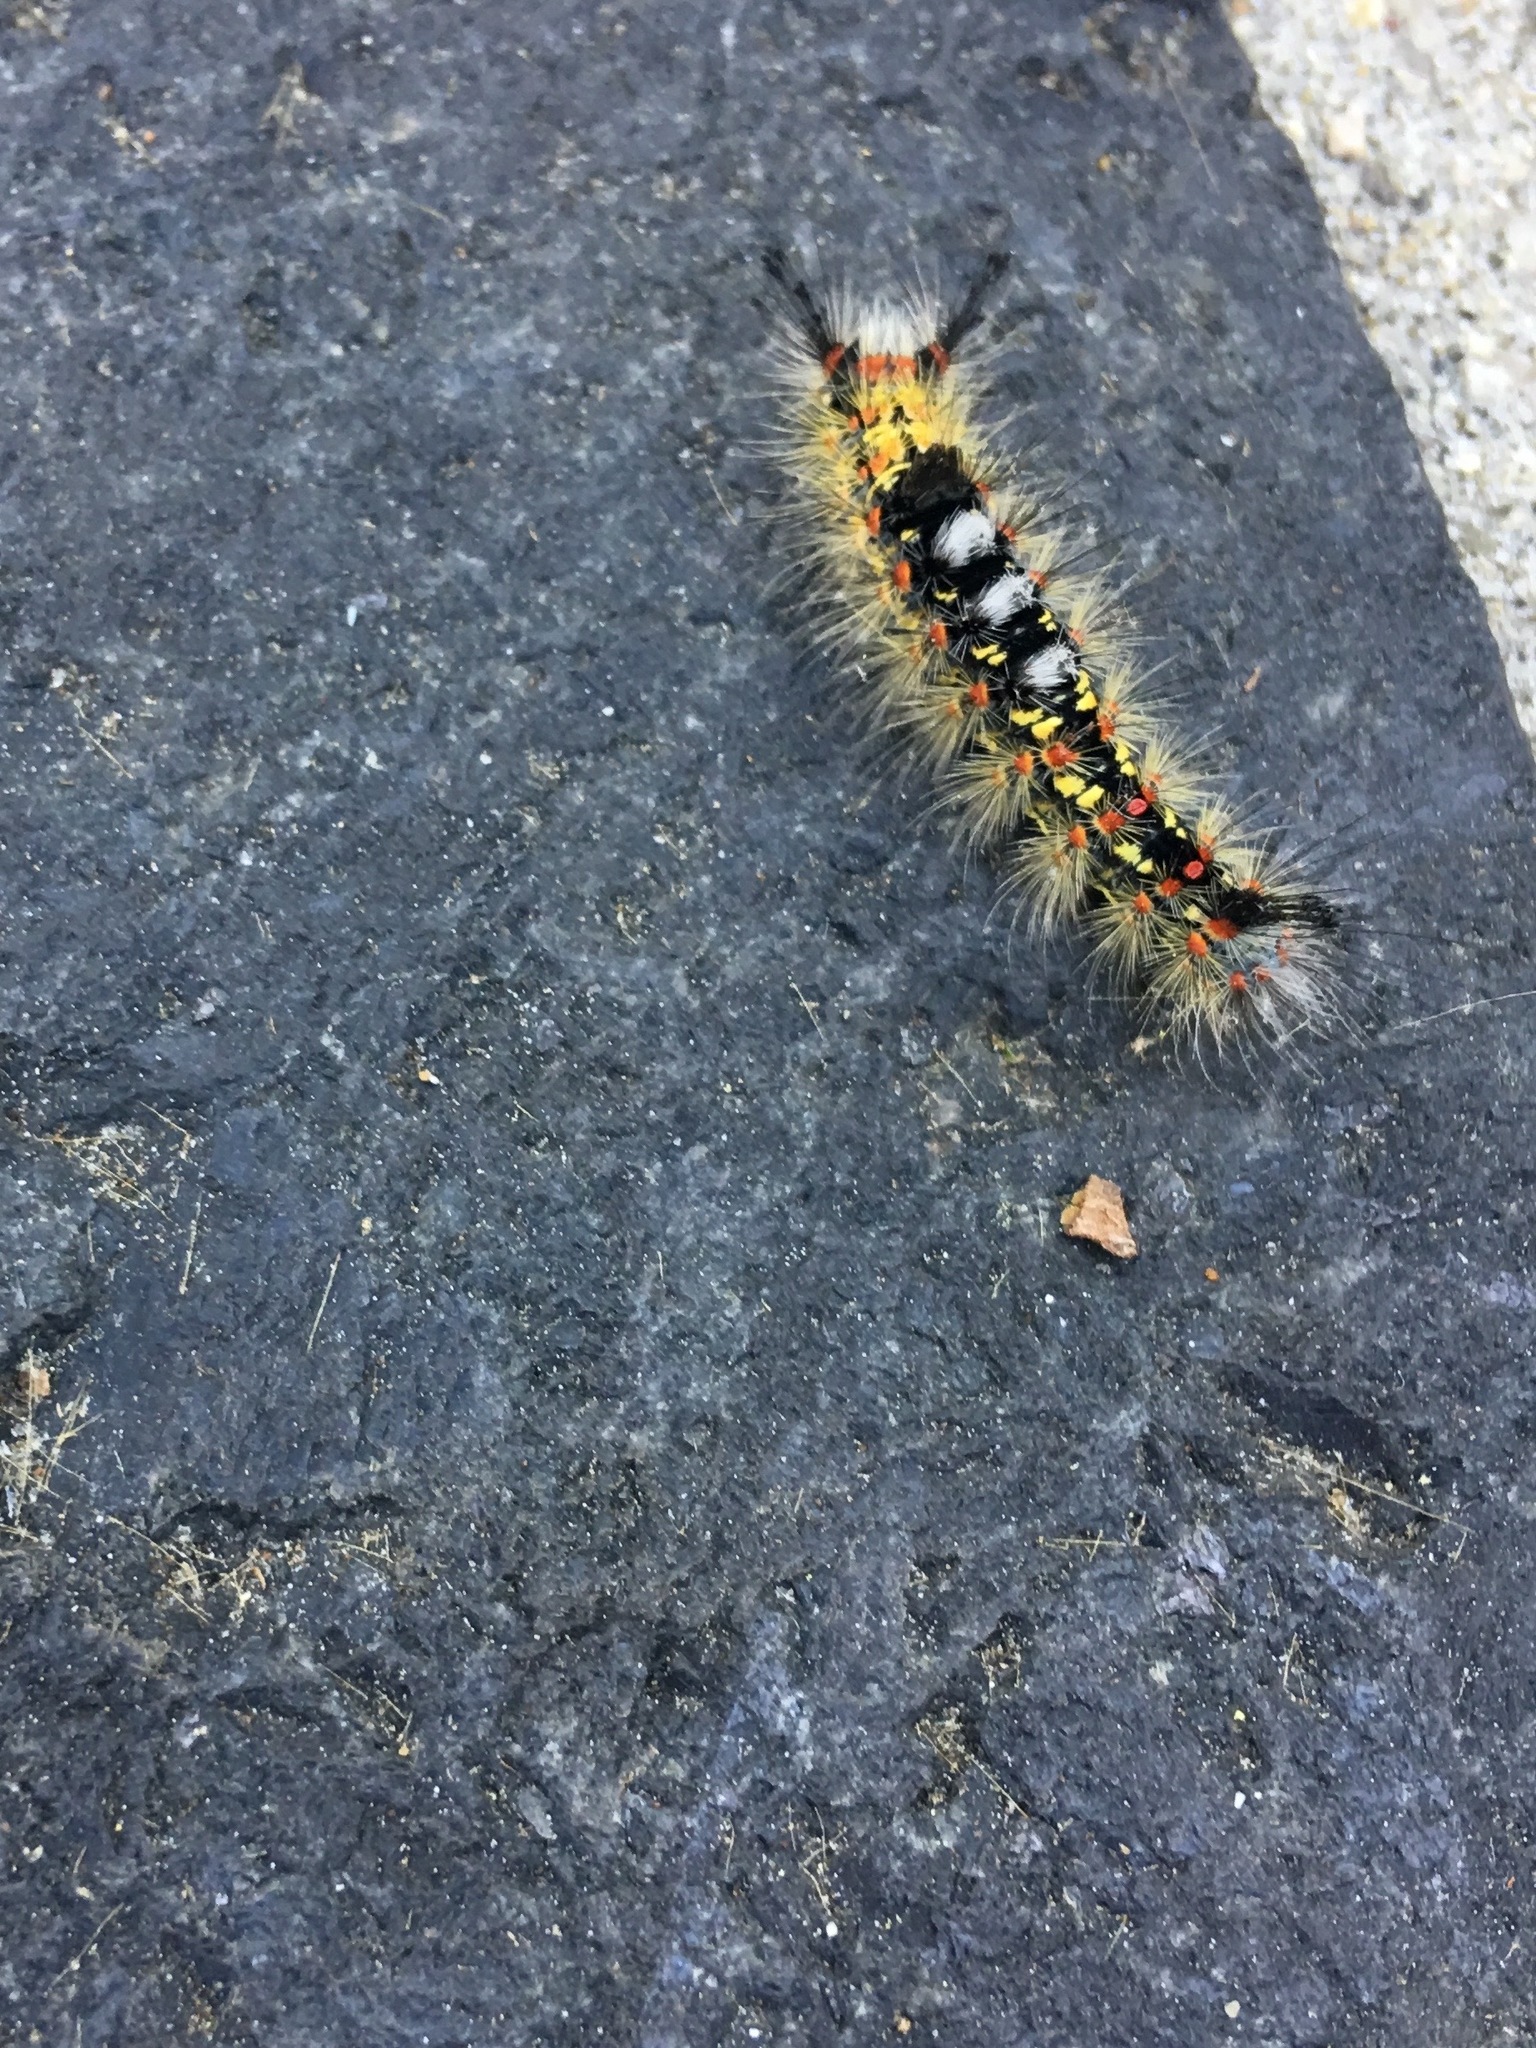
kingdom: Animalia
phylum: Arthropoda
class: Insecta
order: Lepidoptera
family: Erebidae
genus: Orgyia
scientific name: Orgyia vetusta
